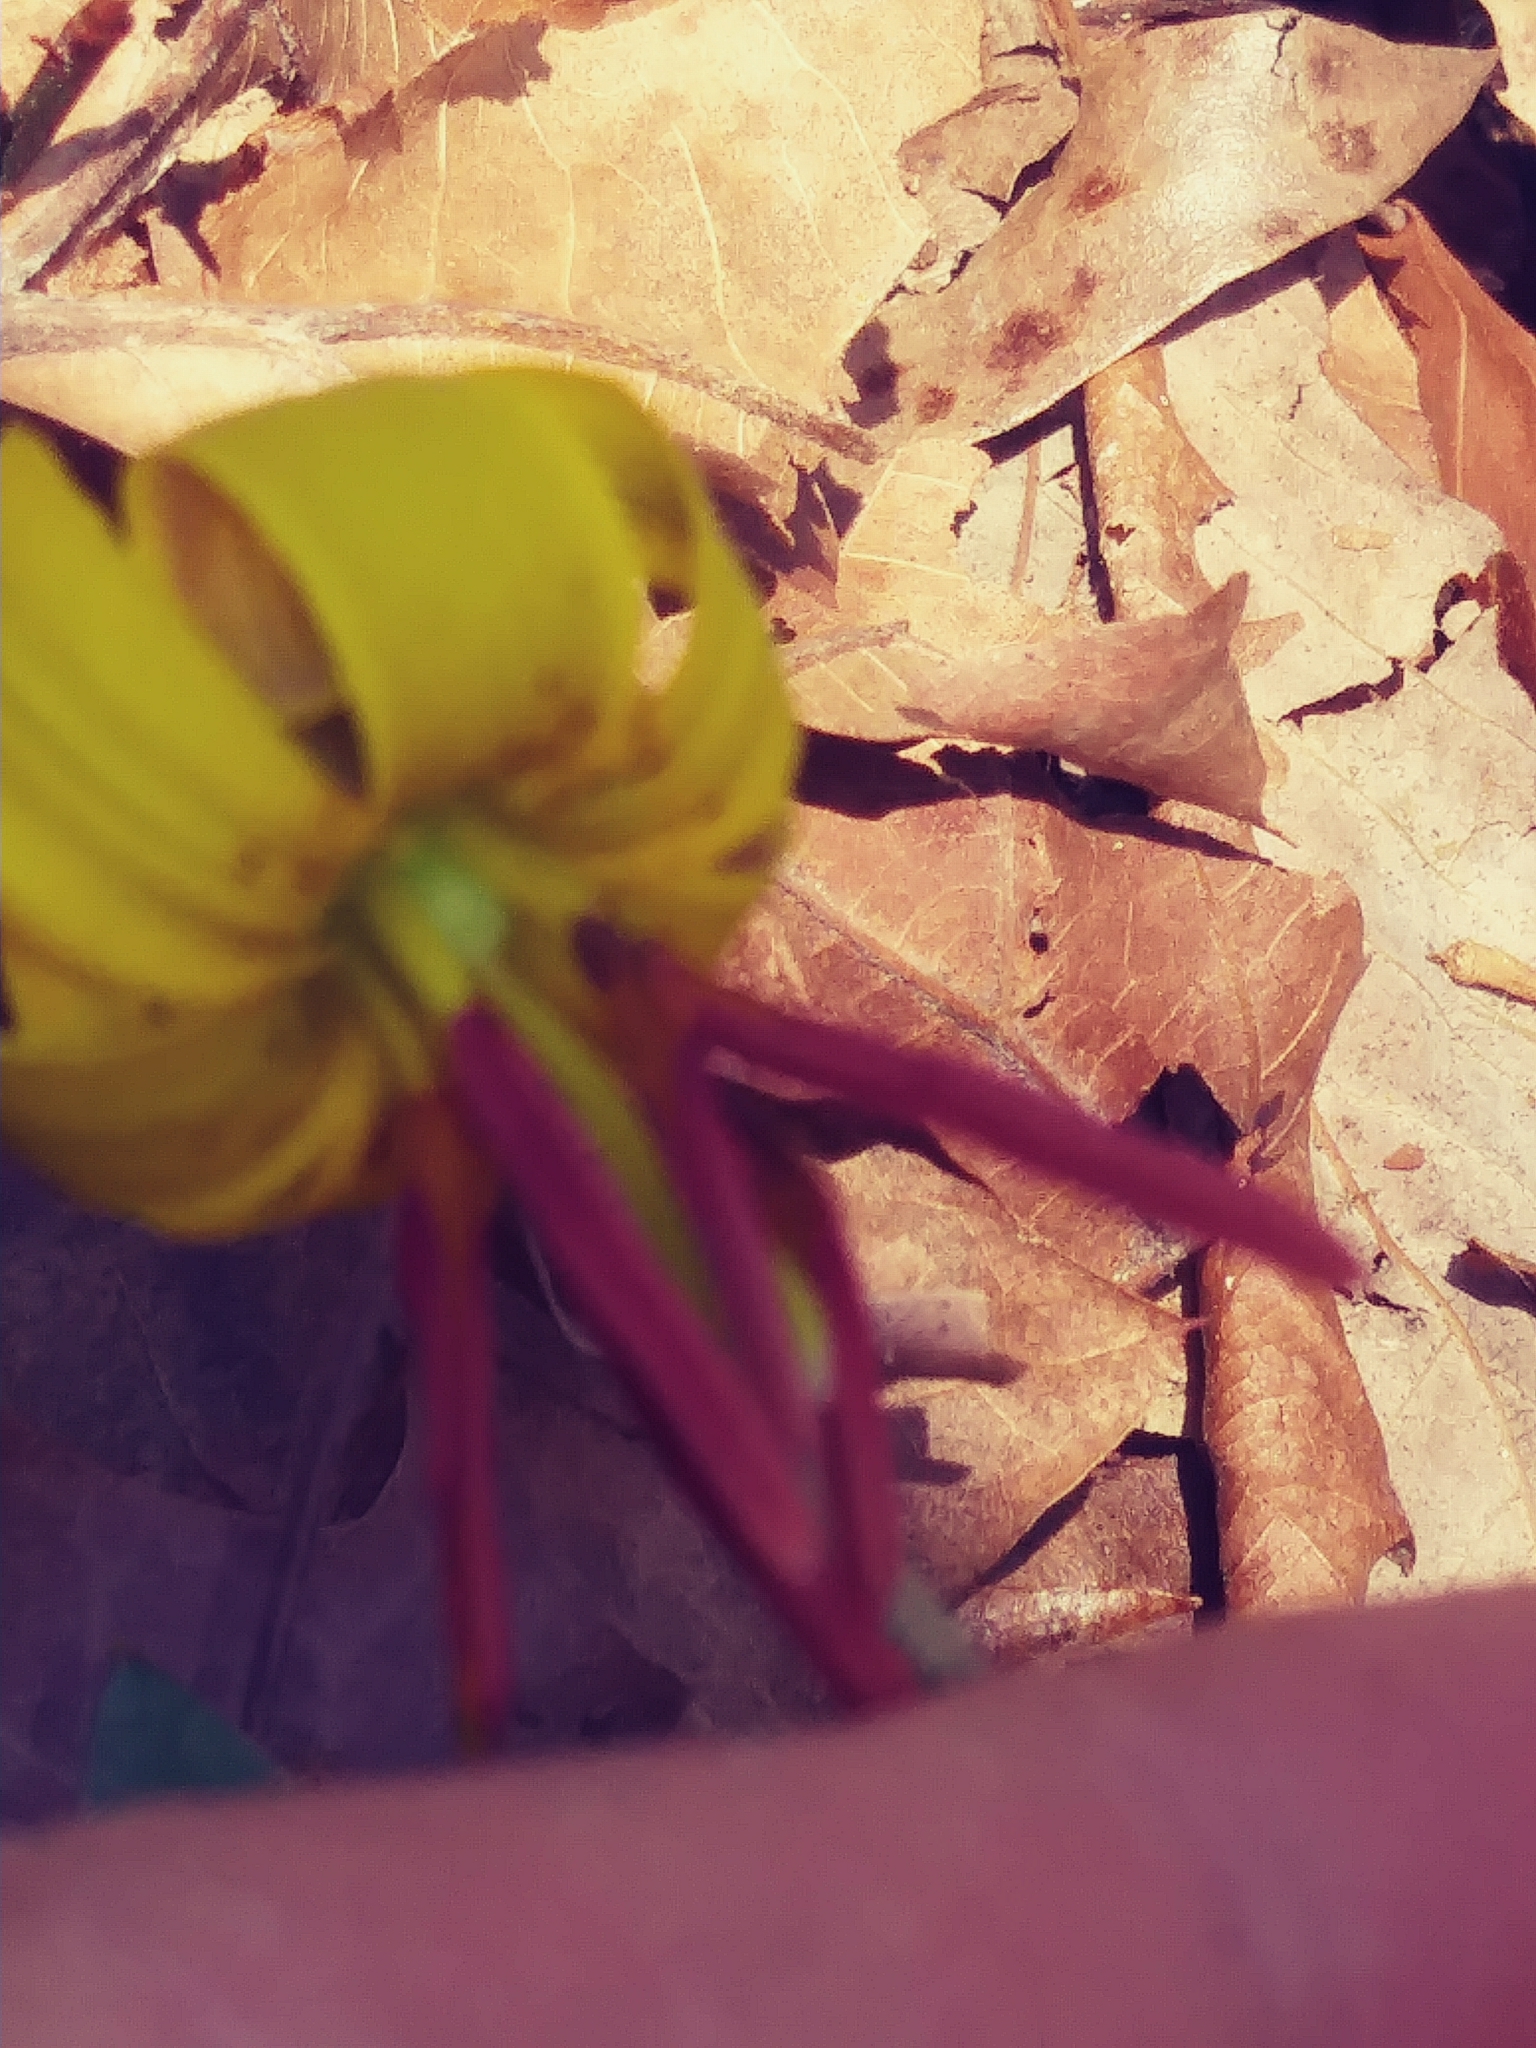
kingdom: Plantae
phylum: Tracheophyta
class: Liliopsida
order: Liliales
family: Liliaceae
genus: Erythronium
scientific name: Erythronium americanum
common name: Yellow adder's-tongue
